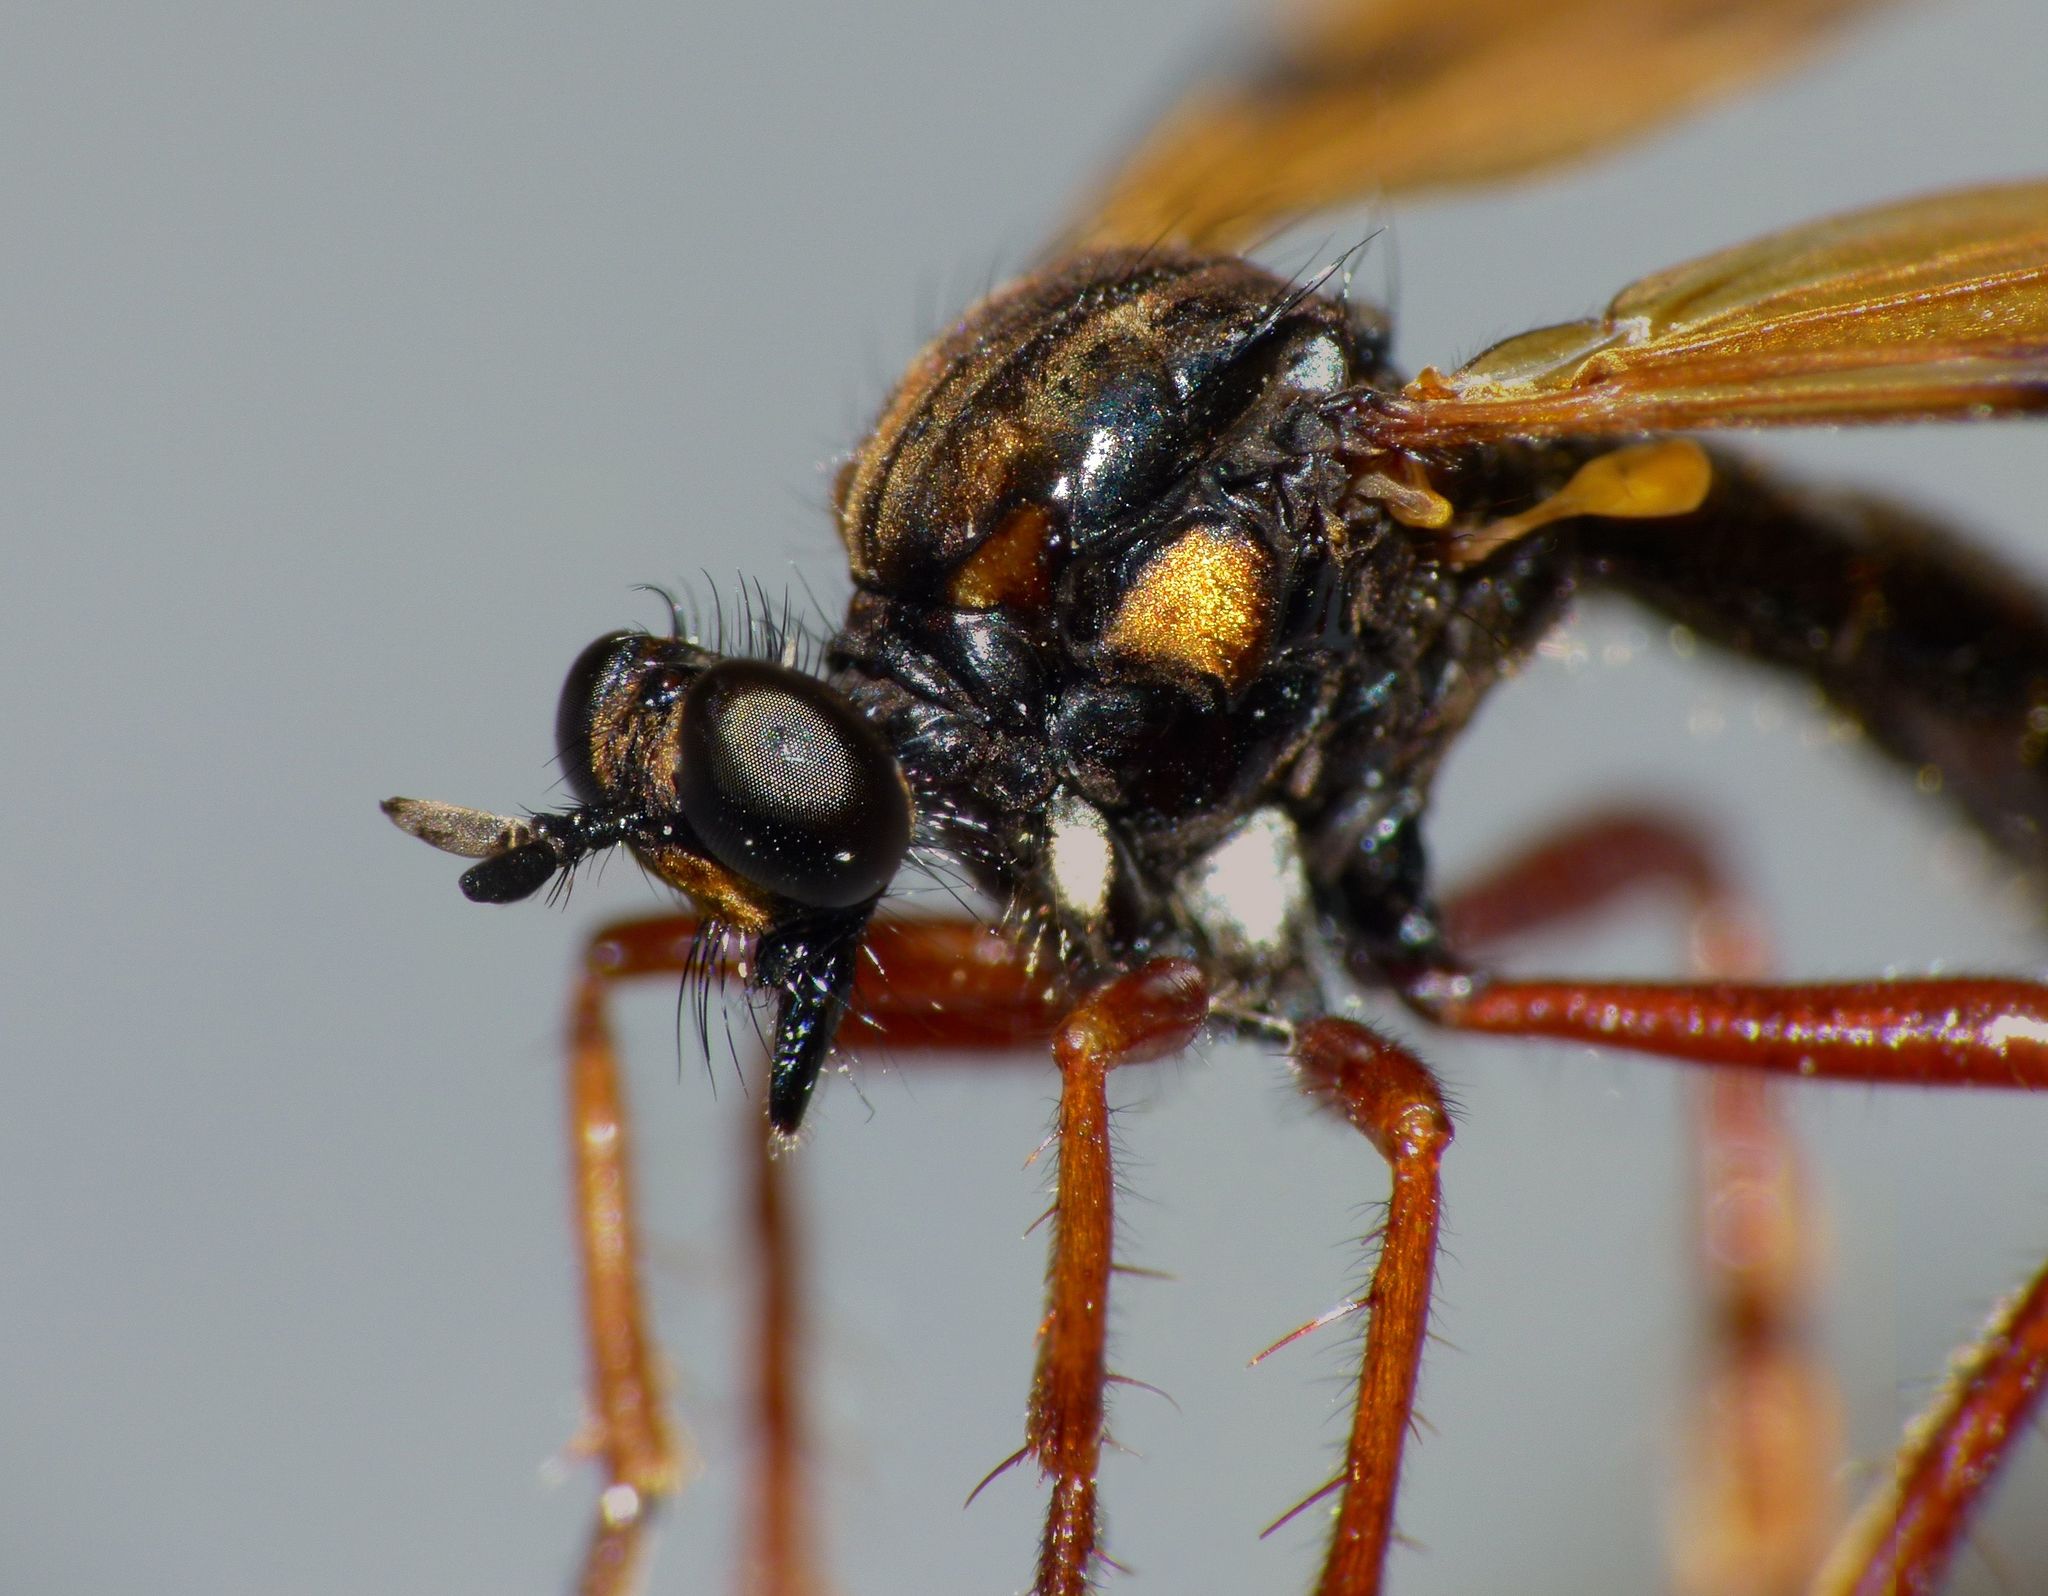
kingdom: Animalia
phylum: Arthropoda
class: Insecta
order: Diptera
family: Asilidae
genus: Saropogon
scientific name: Saropogon extenuatus
